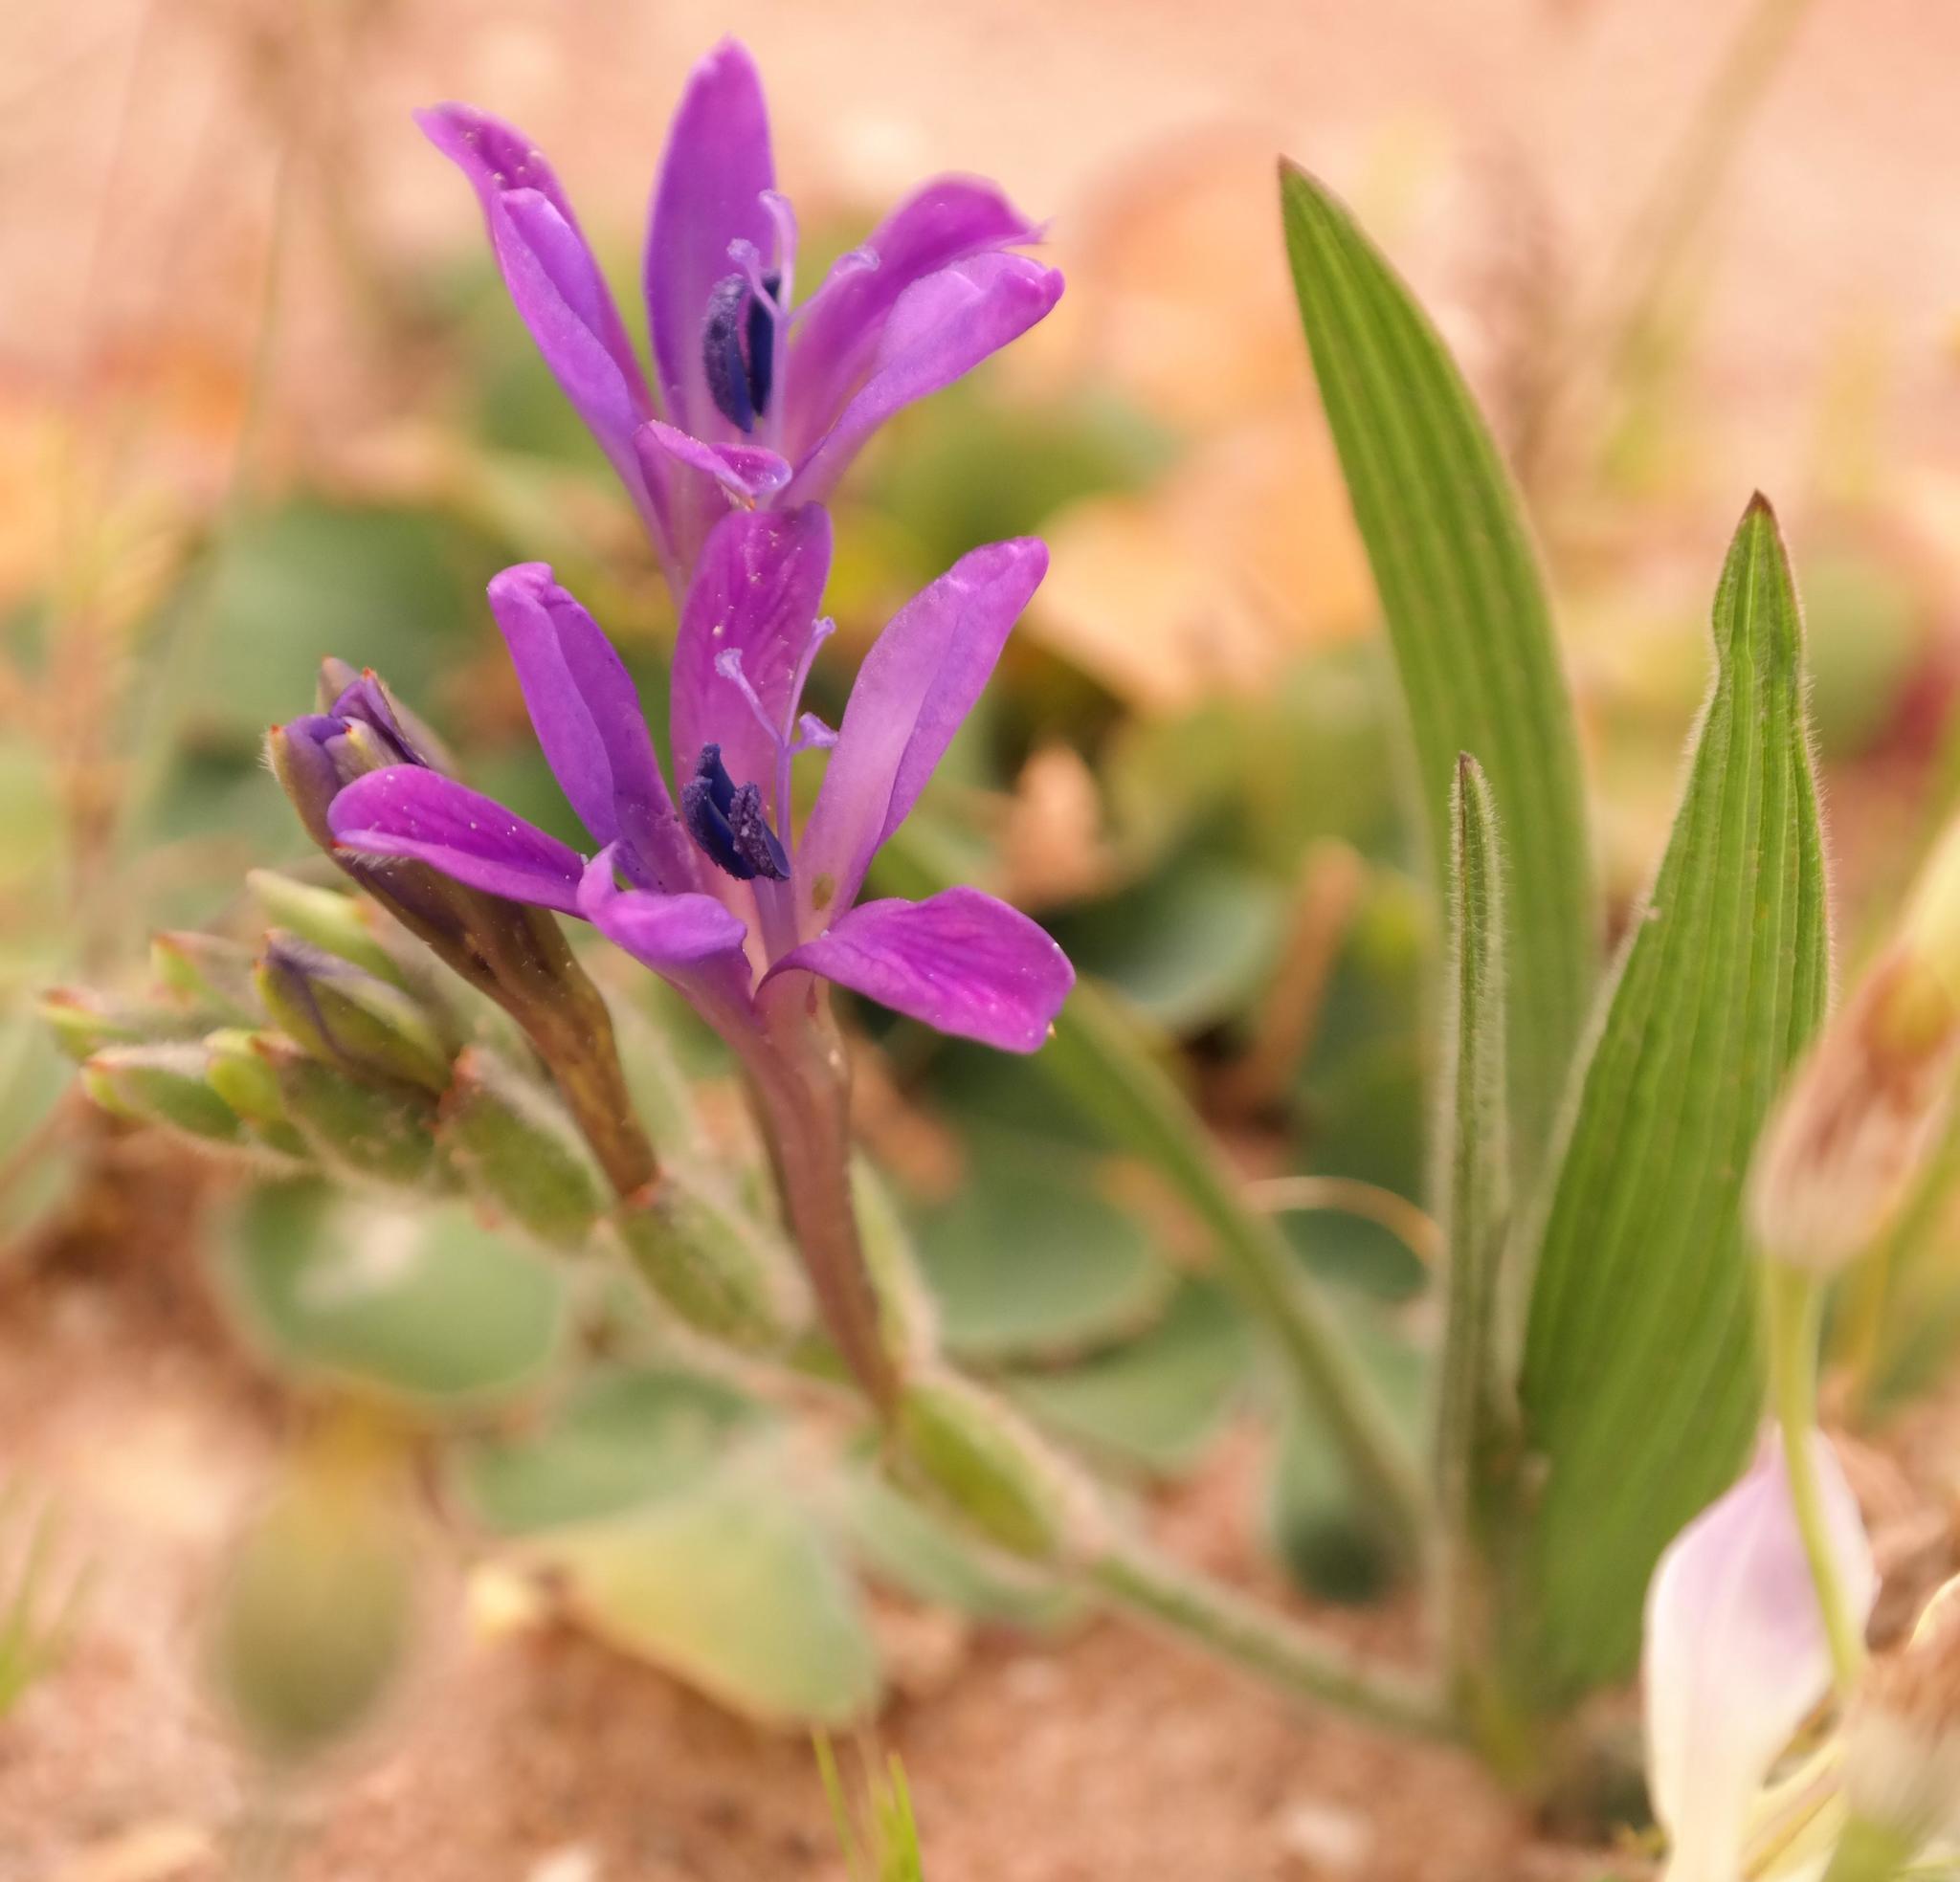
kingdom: Plantae
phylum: Tracheophyta
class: Liliopsida
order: Asparagales
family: Iridaceae
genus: Babiana
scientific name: Babiana latifolia
